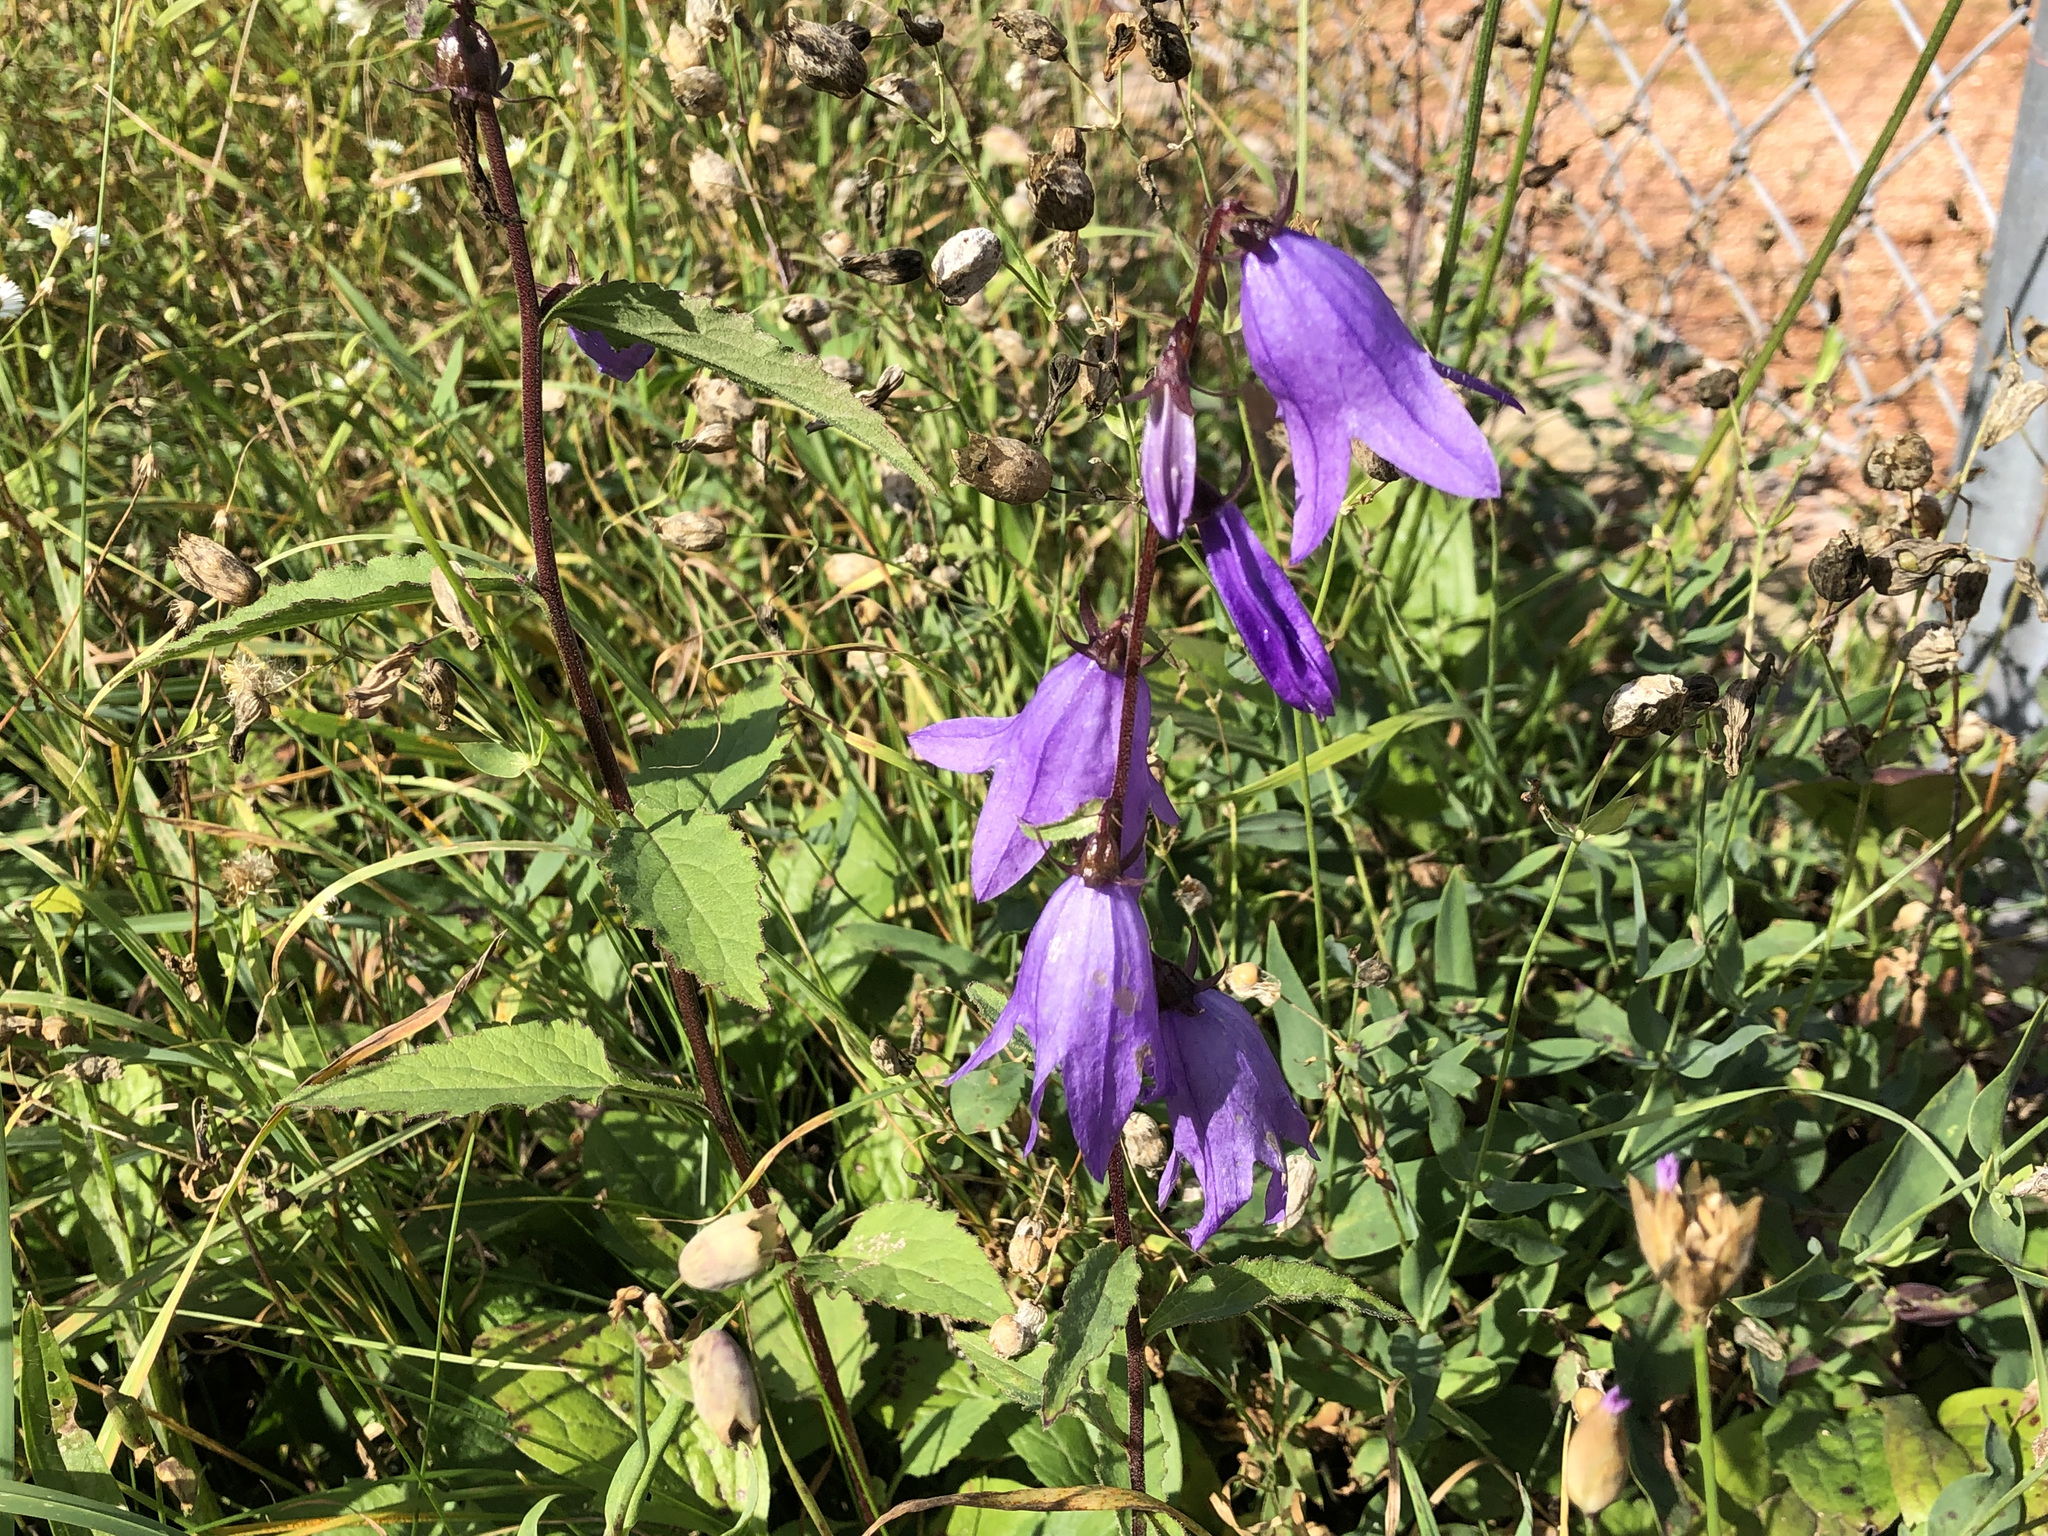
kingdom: Plantae
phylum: Tracheophyta
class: Magnoliopsida
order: Asterales
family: Campanulaceae
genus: Campanula
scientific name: Campanula rapunculoides
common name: Creeping bellflower
